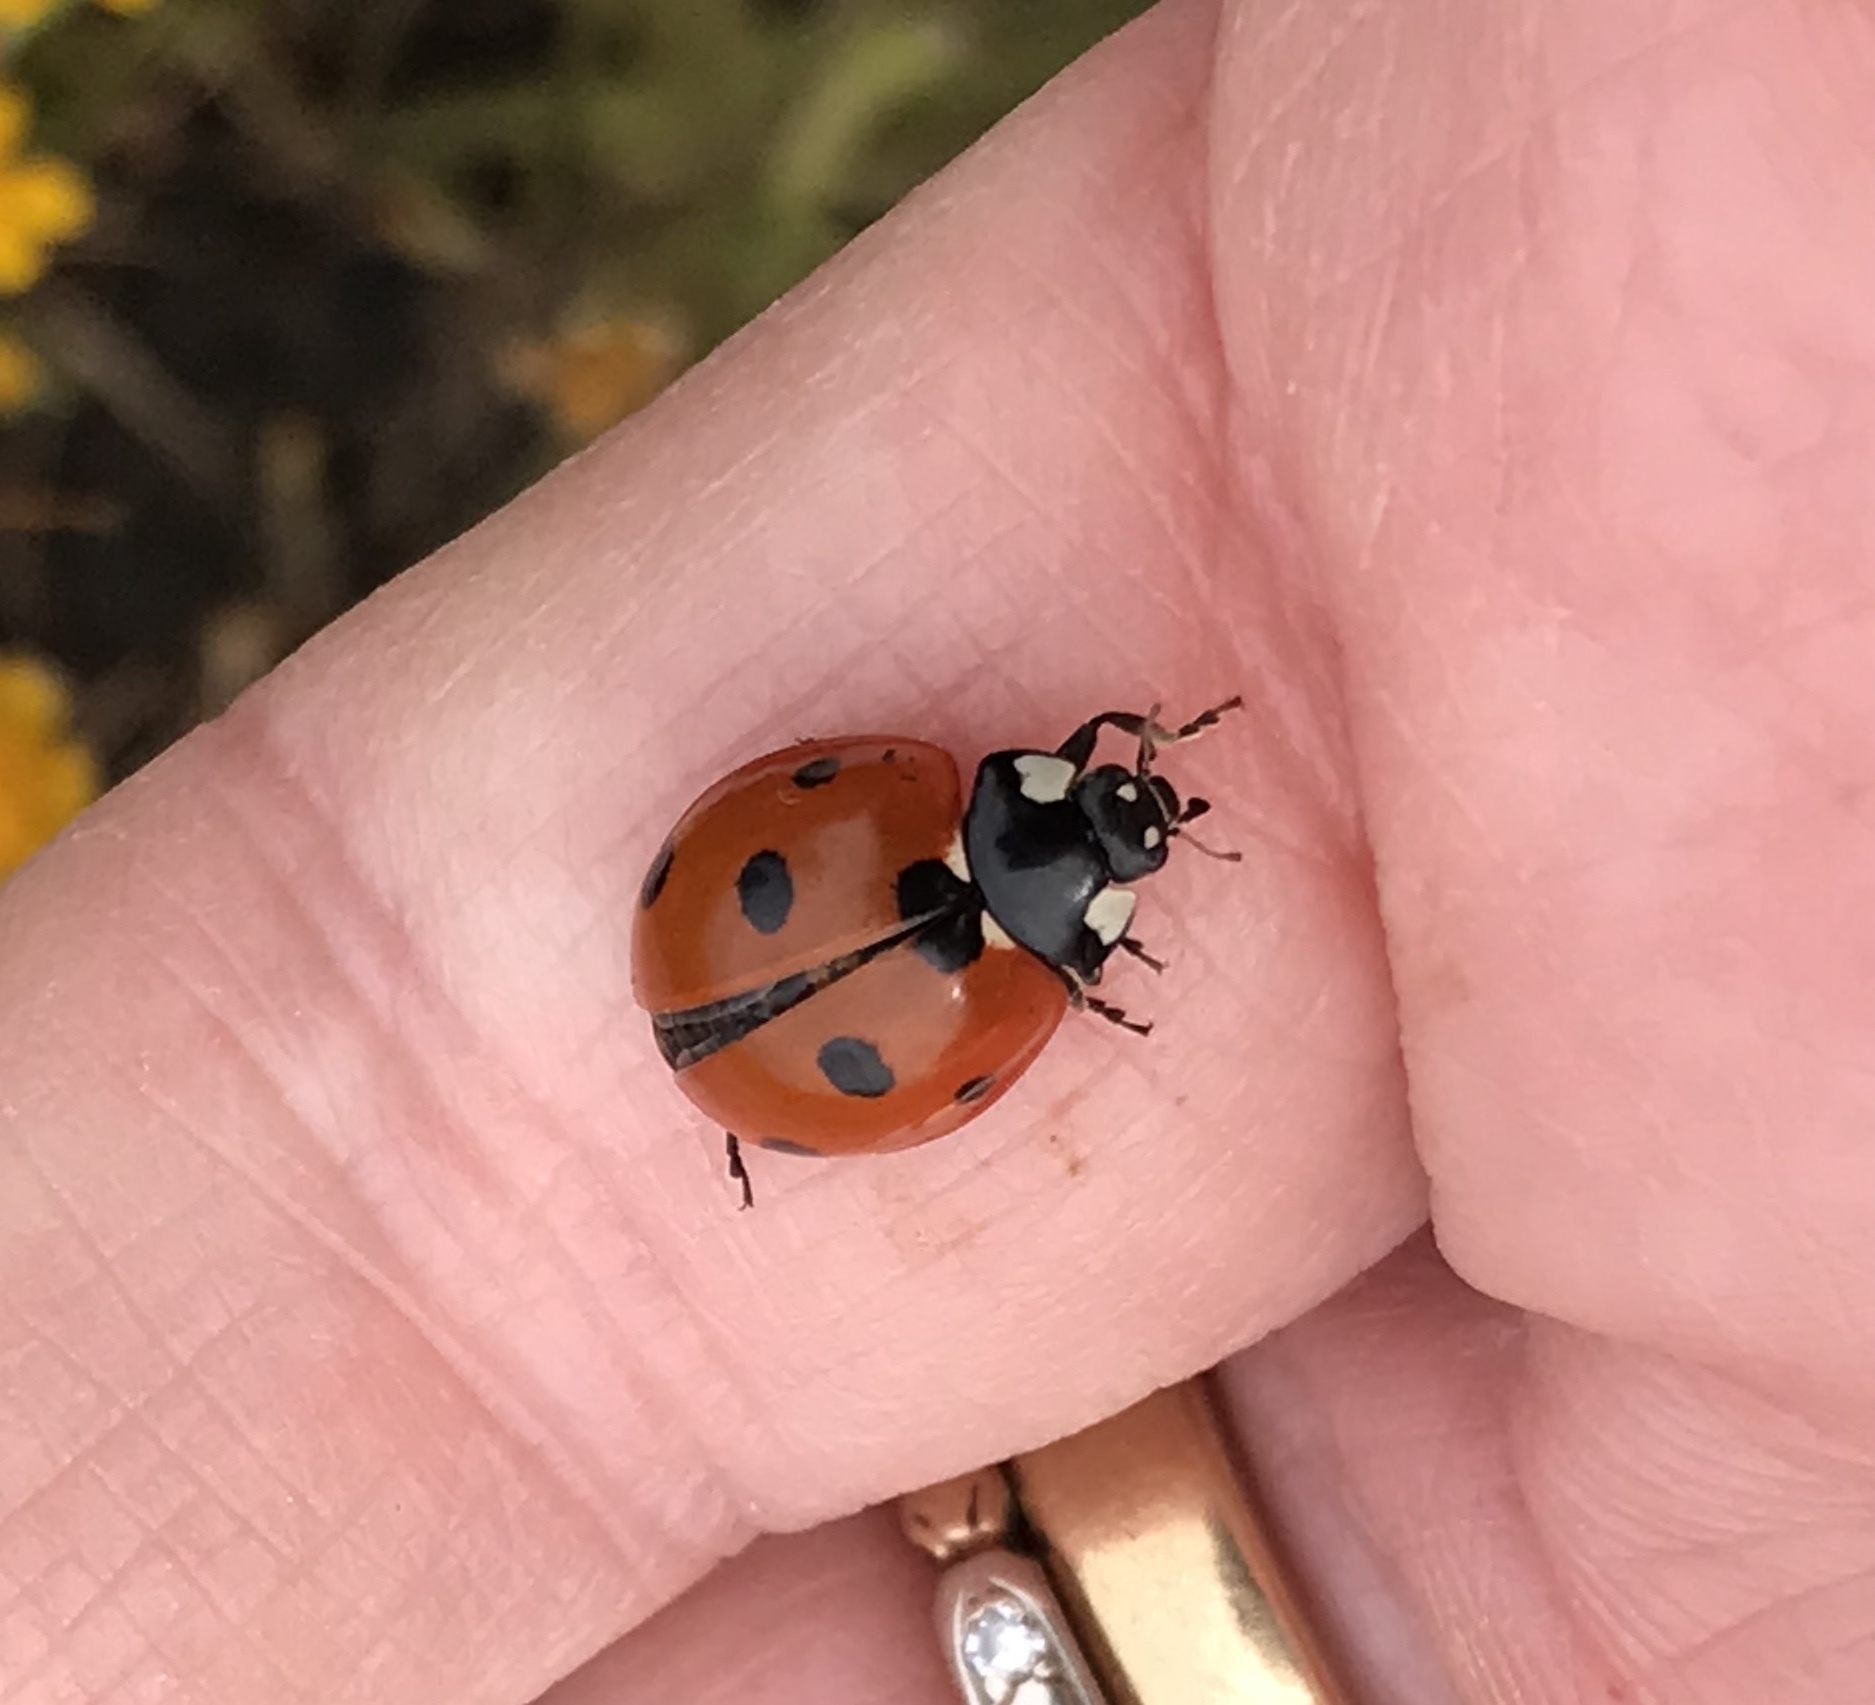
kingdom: Animalia
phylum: Arthropoda
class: Insecta
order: Coleoptera
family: Coccinellidae
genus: Coccinella
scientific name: Coccinella septempunctata
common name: Sevenspotted lady beetle
